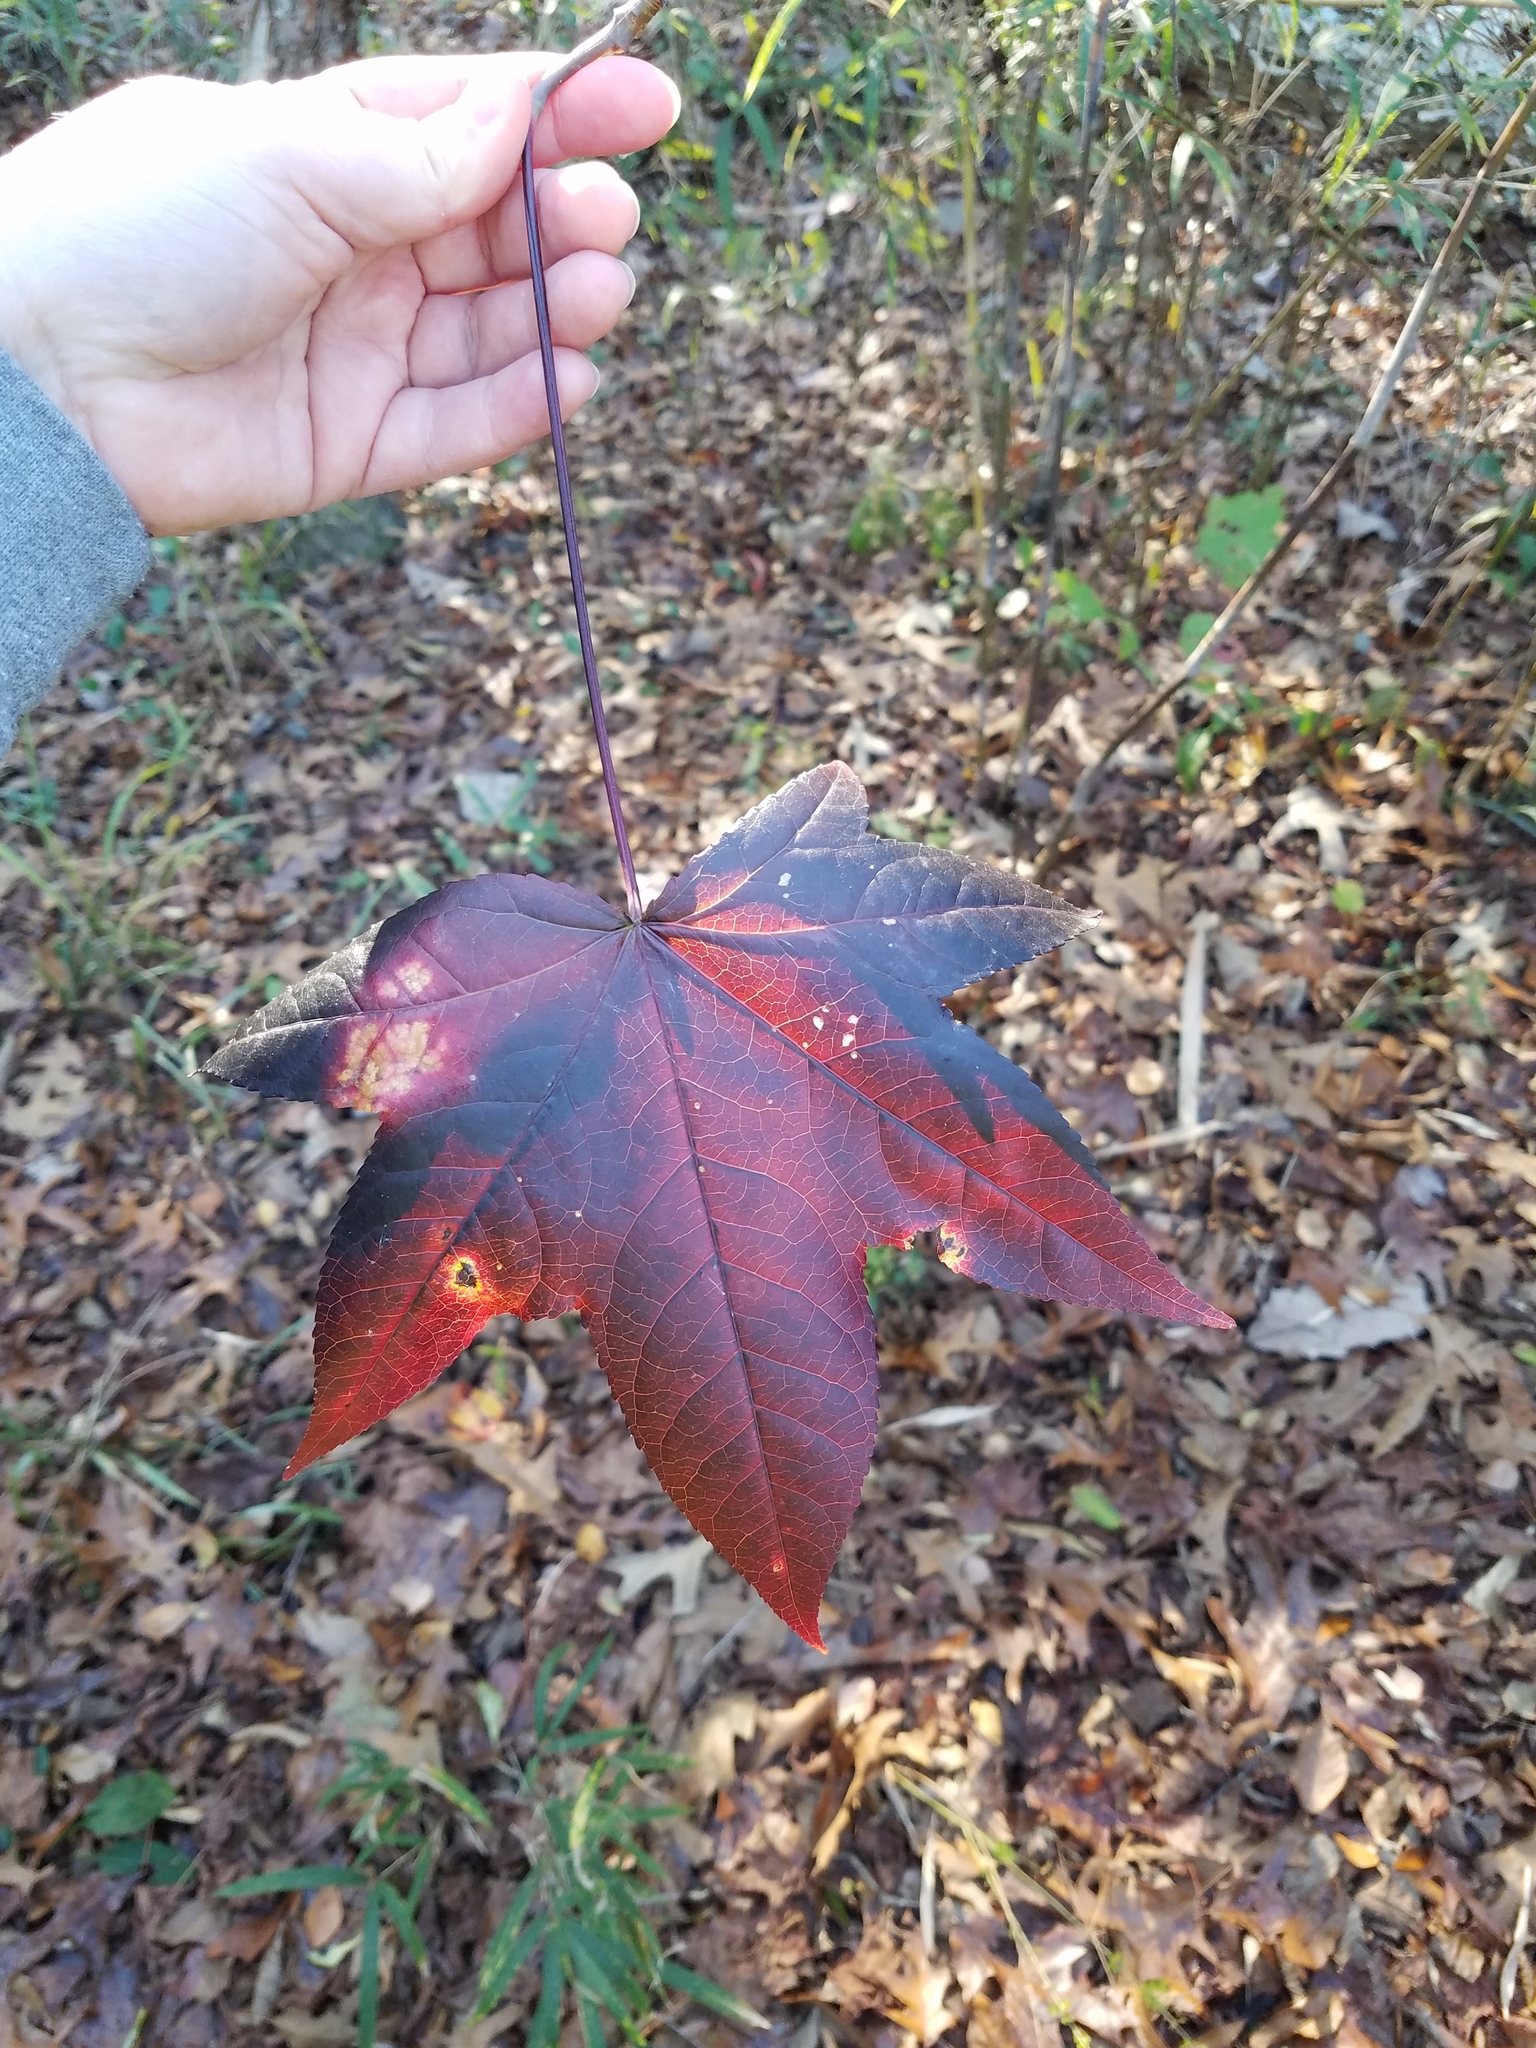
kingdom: Plantae
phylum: Tracheophyta
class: Magnoliopsida
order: Saxifragales
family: Altingiaceae
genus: Liquidambar
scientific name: Liquidambar styraciflua
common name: Sweet gum
